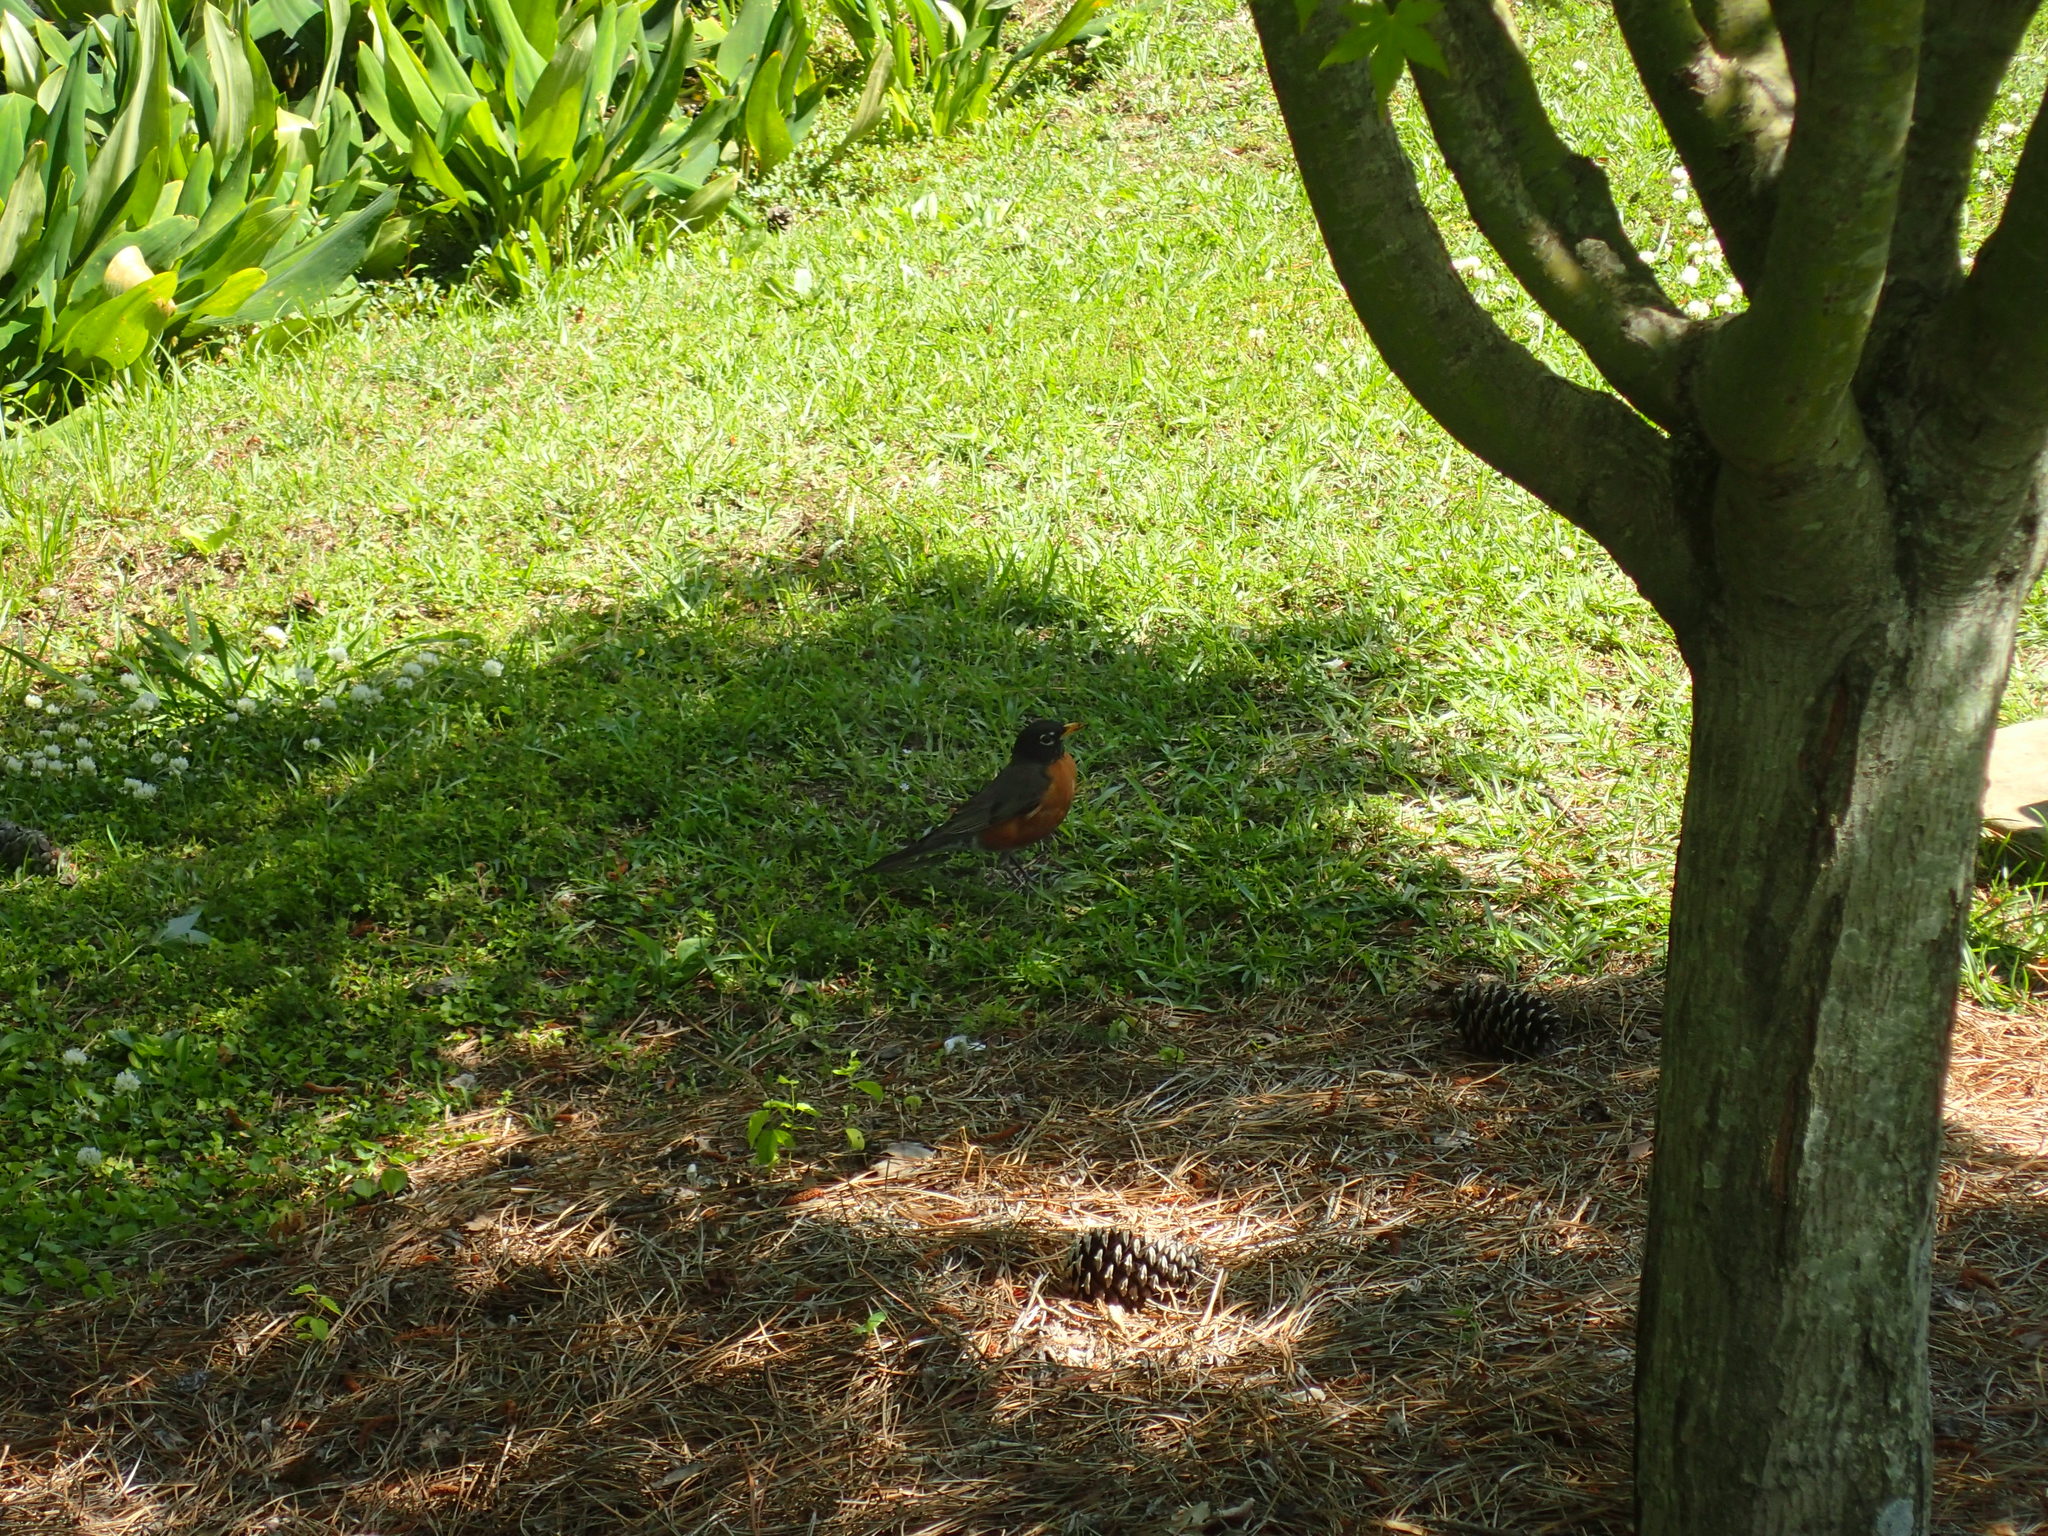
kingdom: Animalia
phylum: Chordata
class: Aves
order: Passeriformes
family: Turdidae
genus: Turdus
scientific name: Turdus migratorius
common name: American robin
